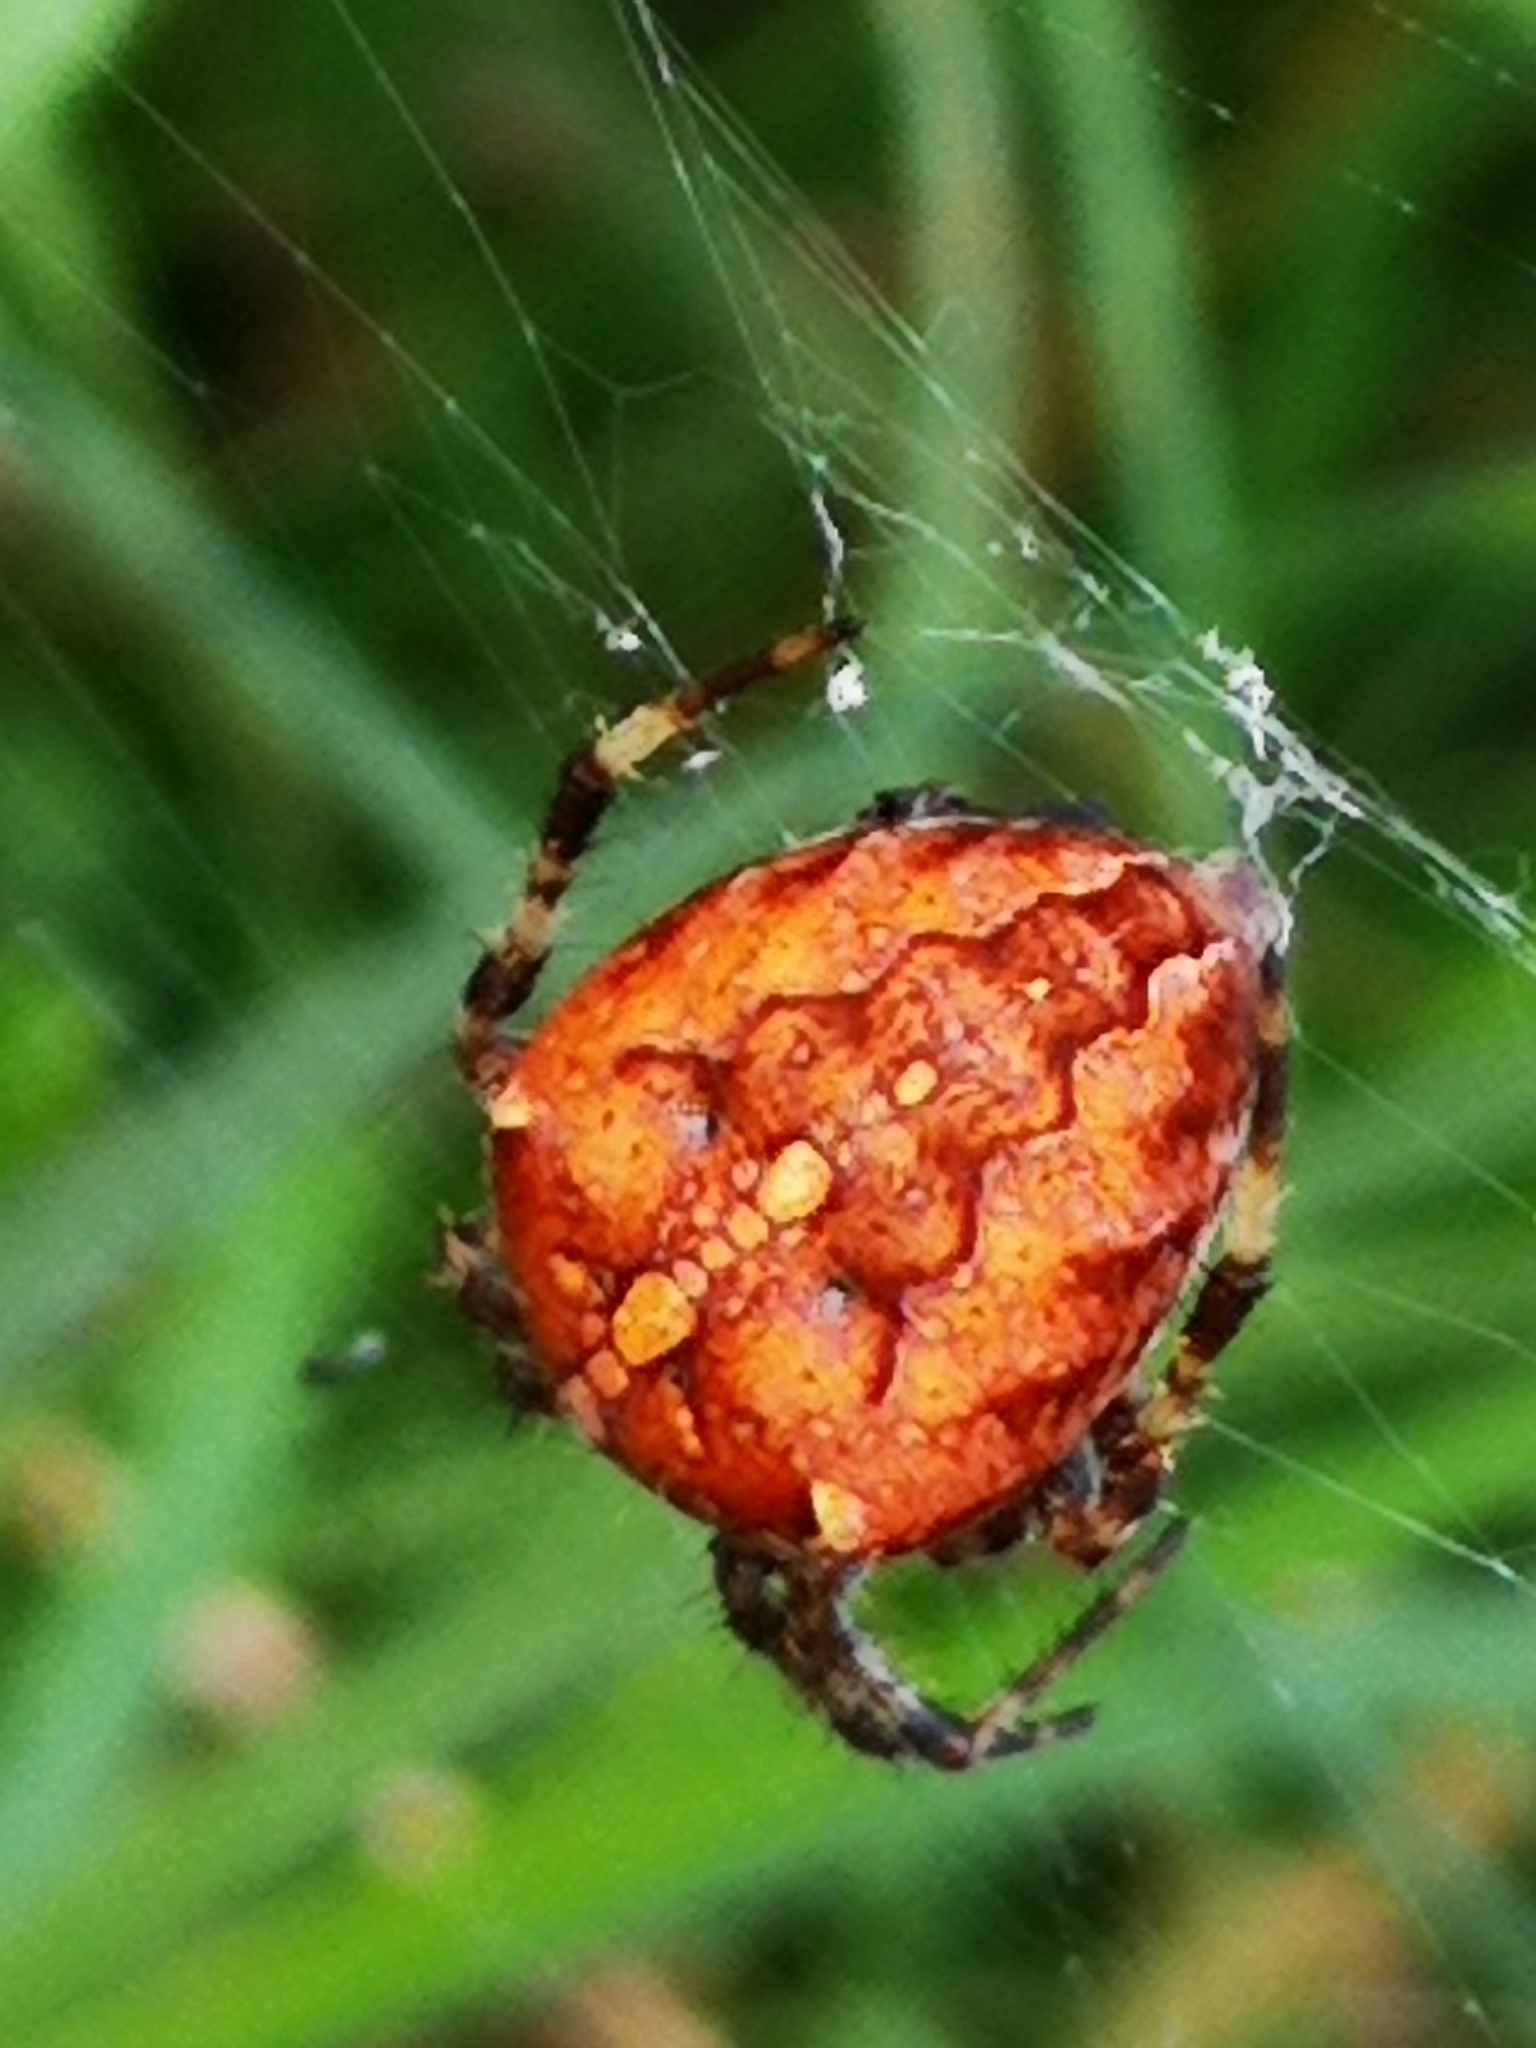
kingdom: Animalia
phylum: Arthropoda
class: Arachnida
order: Araneae
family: Araneidae
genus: Araneus
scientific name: Araneus diadematus
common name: Cross orbweaver
